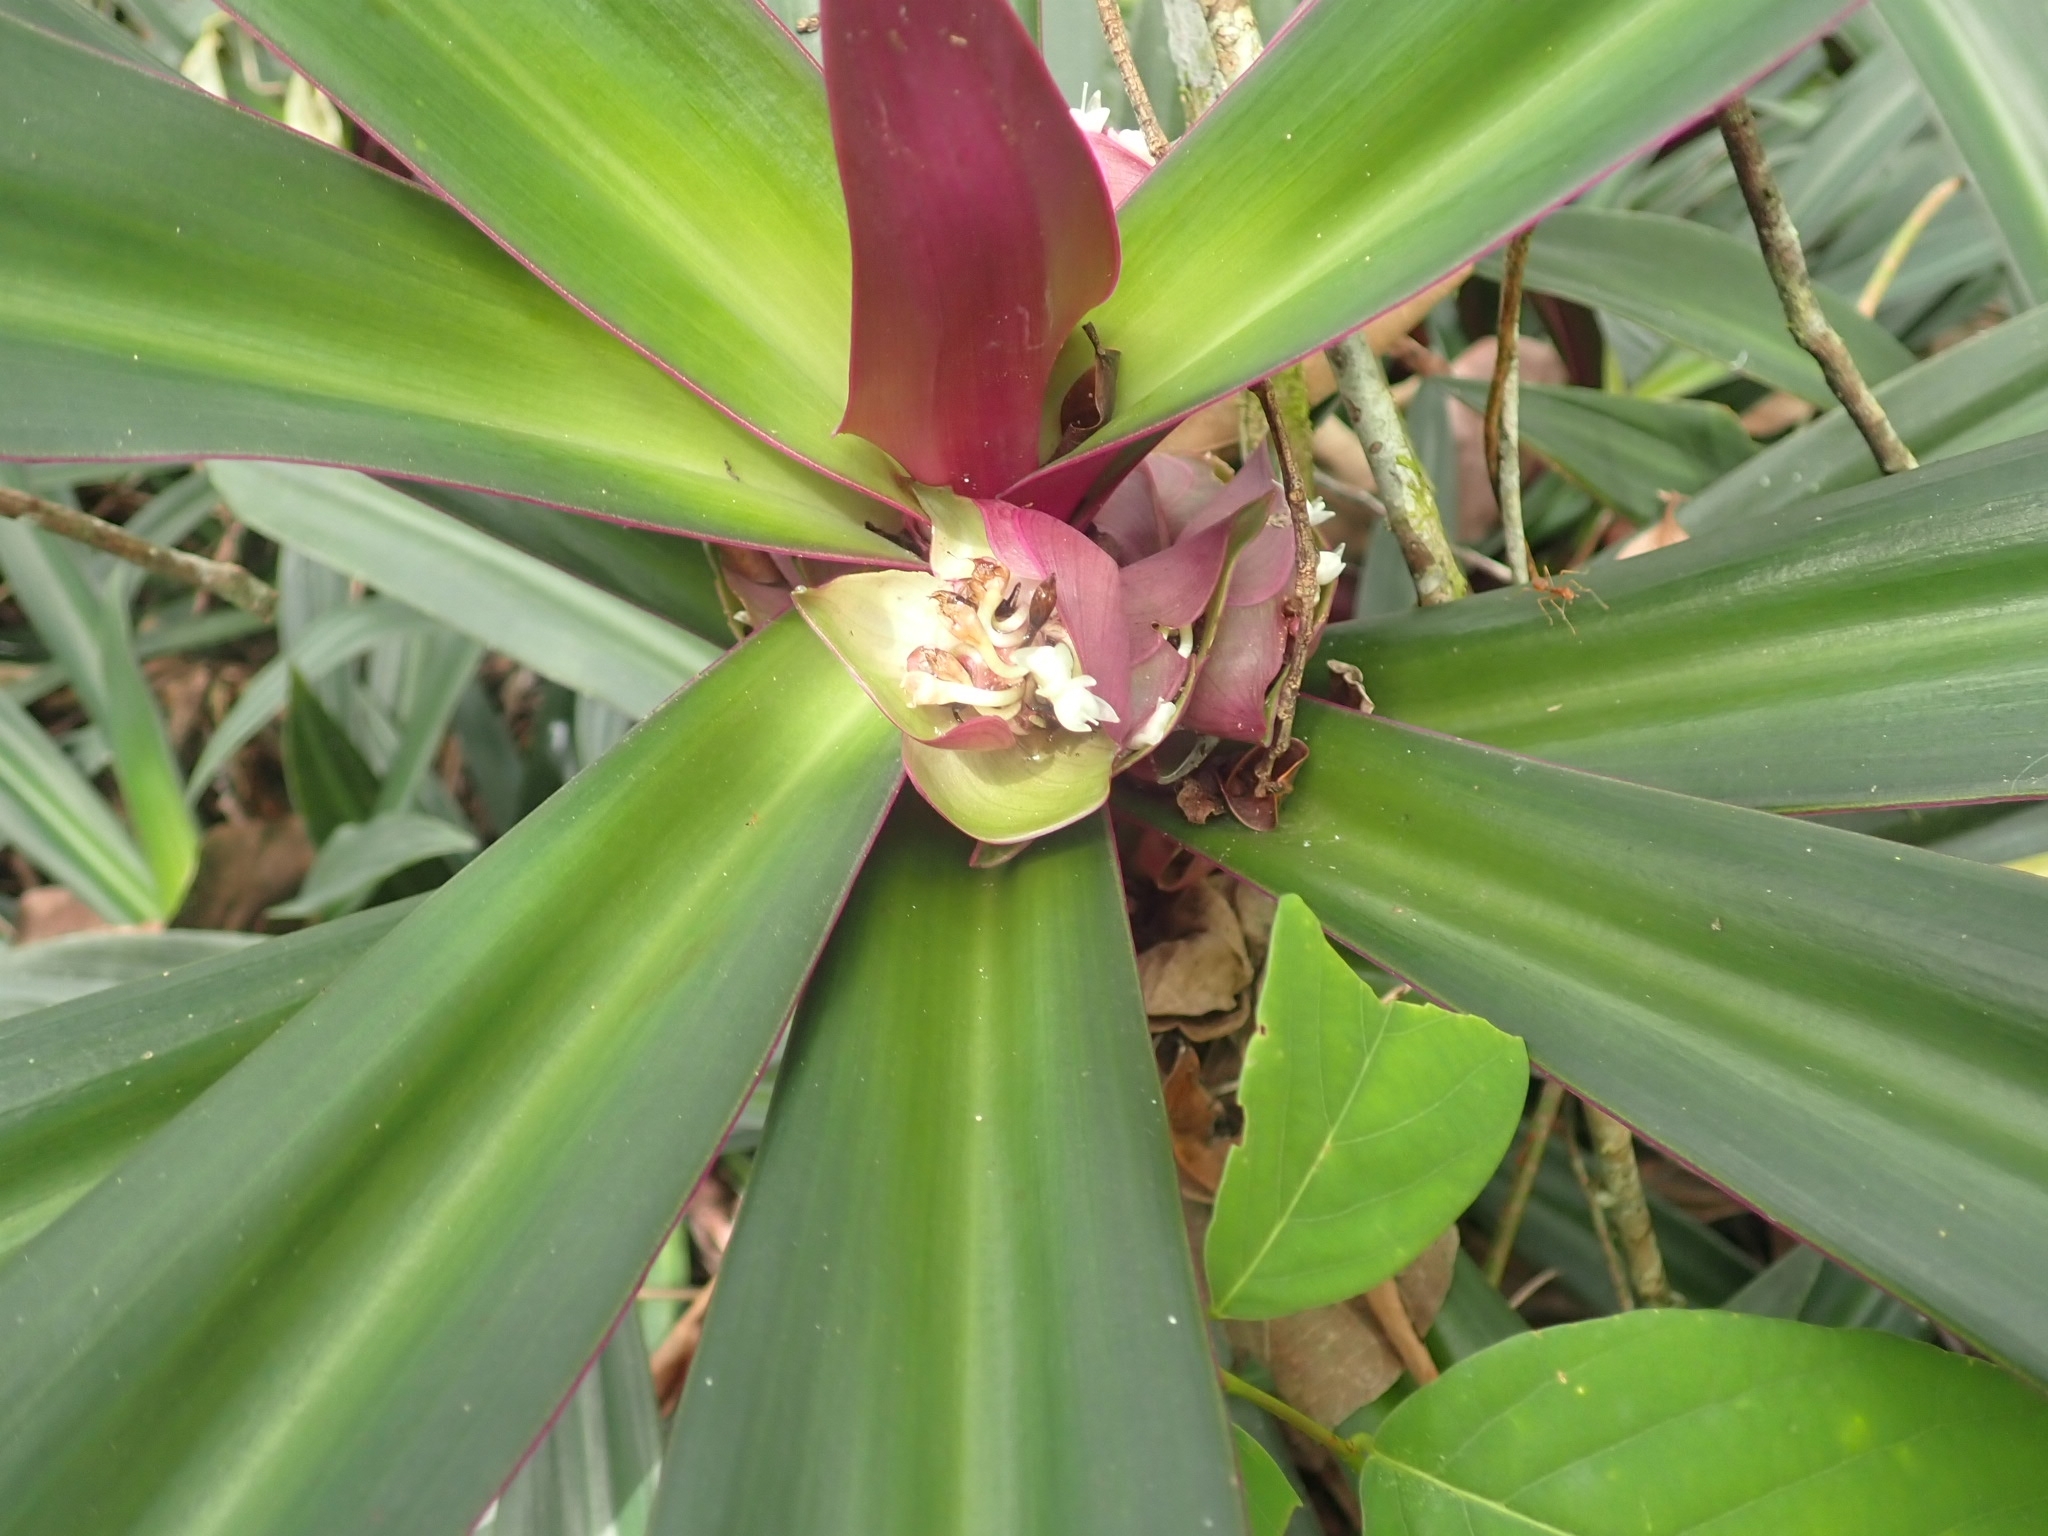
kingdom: Plantae
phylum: Tracheophyta
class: Liliopsida
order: Commelinales
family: Commelinaceae
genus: Tradescantia
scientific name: Tradescantia spathacea
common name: Boatlily
